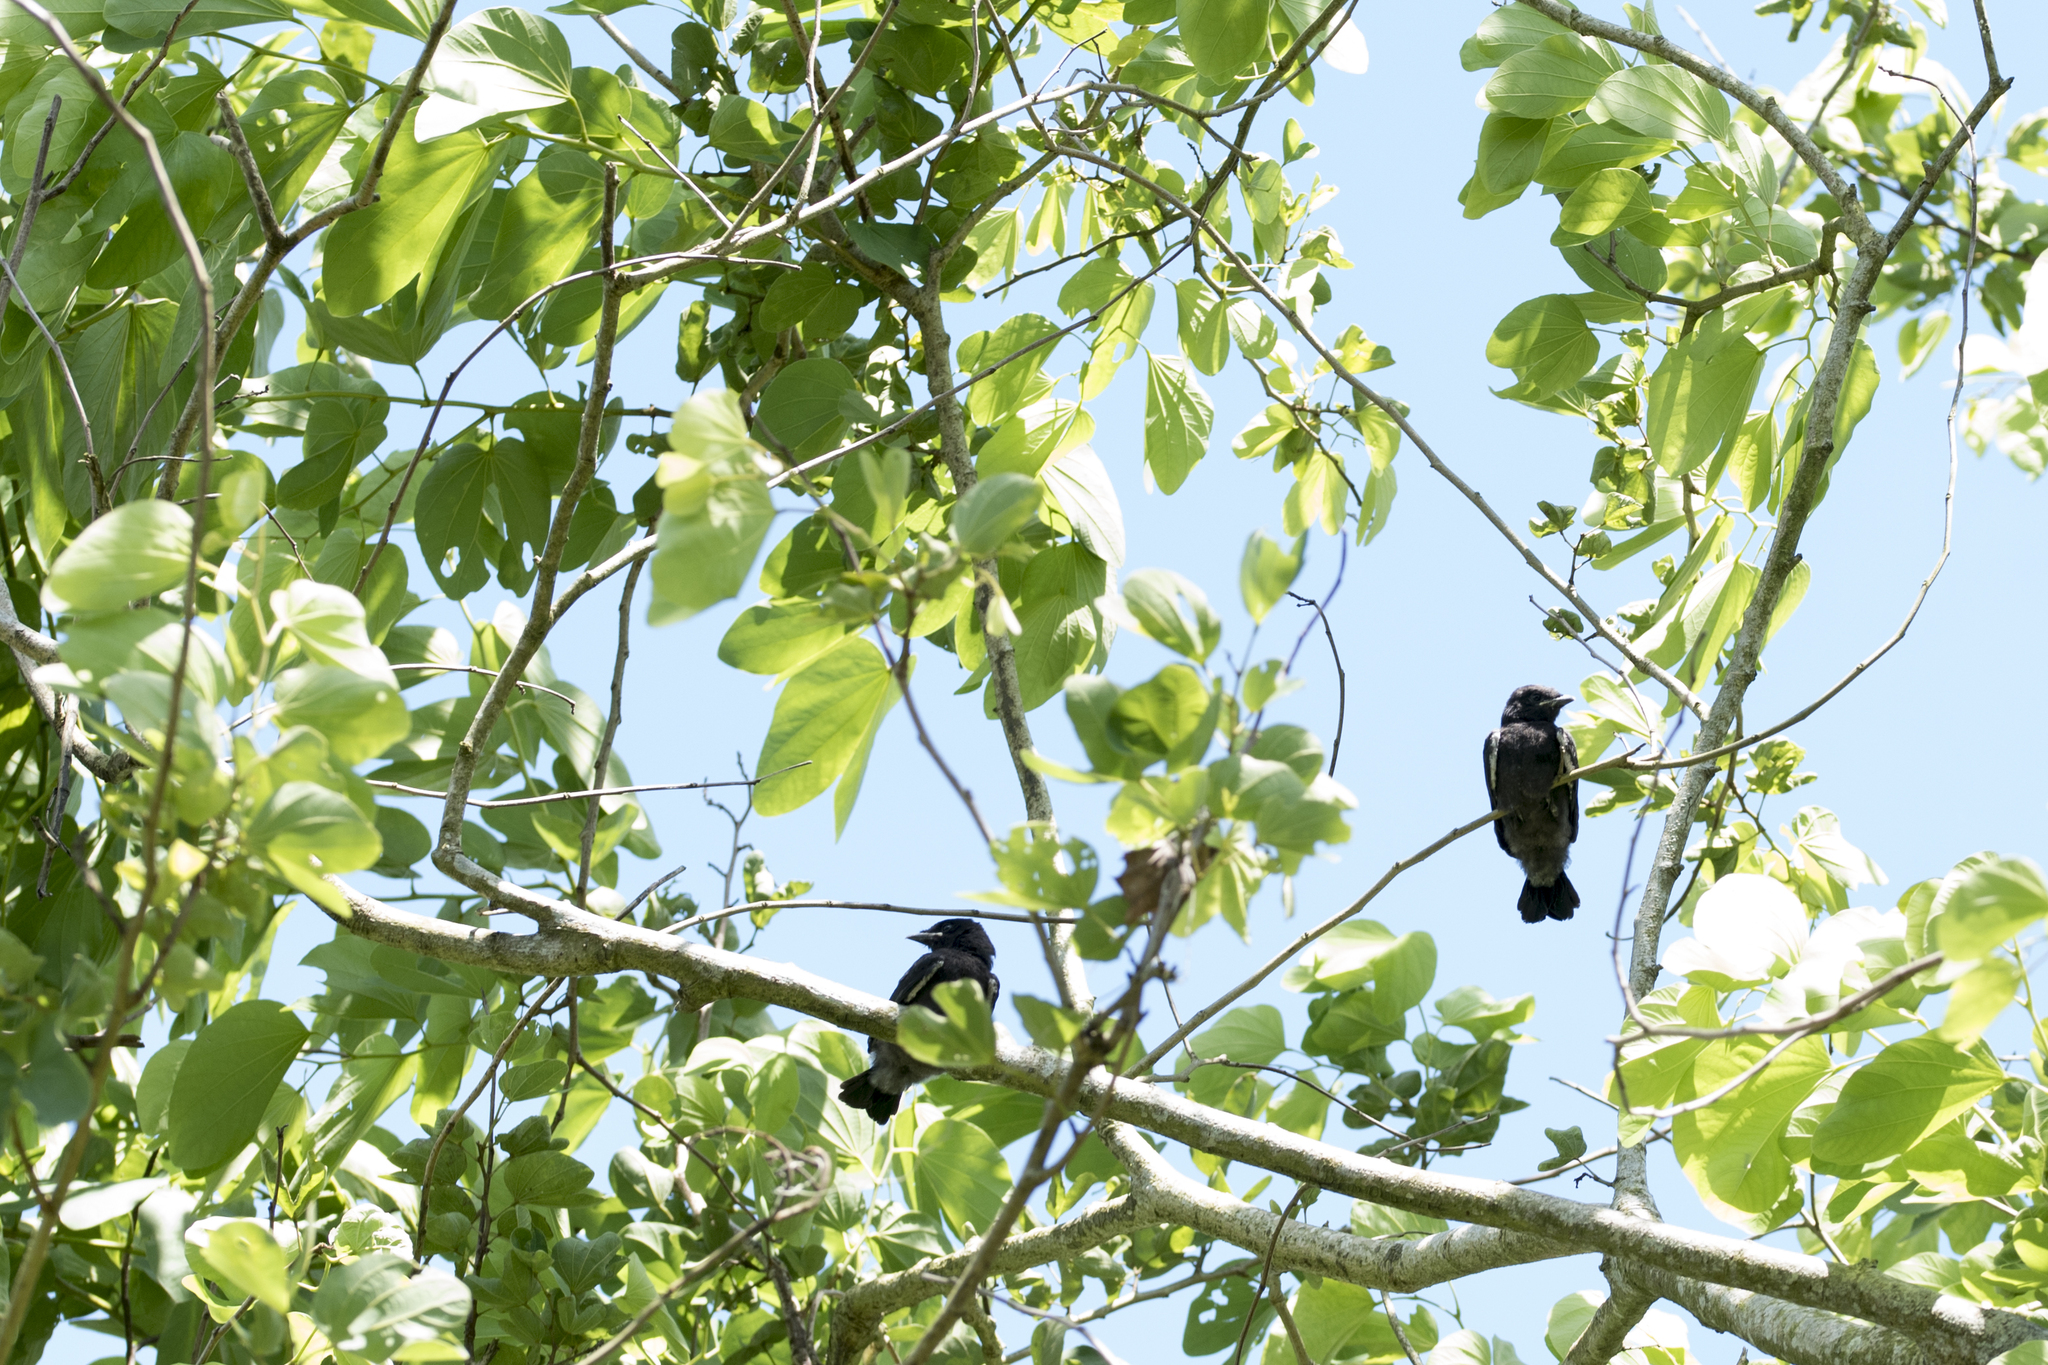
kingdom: Animalia
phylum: Chordata
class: Aves
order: Passeriformes
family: Dicruridae
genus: Dicrurus
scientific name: Dicrurus macrocercus
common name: Black drongo
